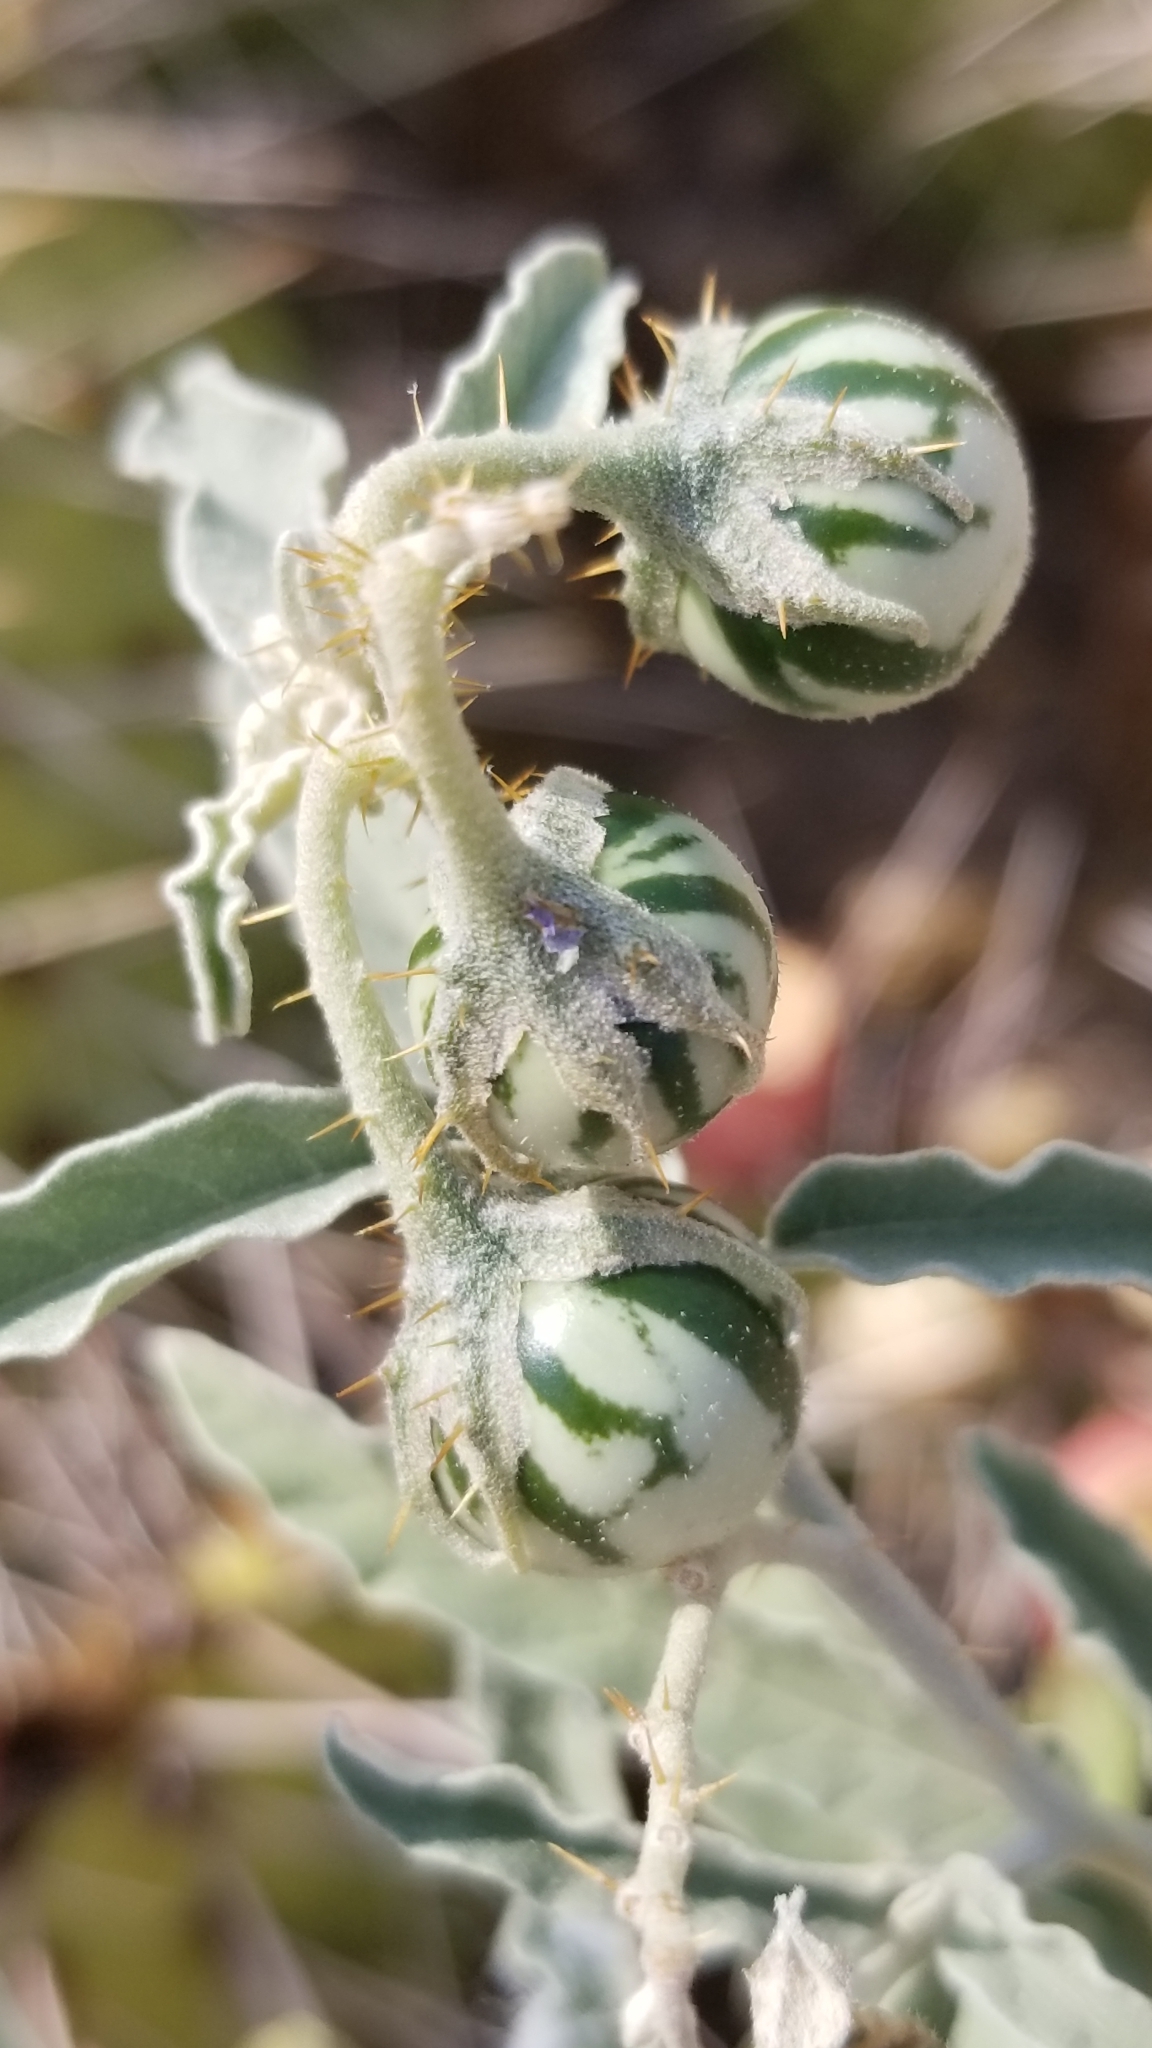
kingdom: Plantae
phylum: Tracheophyta
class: Magnoliopsida
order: Solanales
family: Solanaceae
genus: Solanum
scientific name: Solanum elaeagnifolium
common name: Silverleaf nightshade
